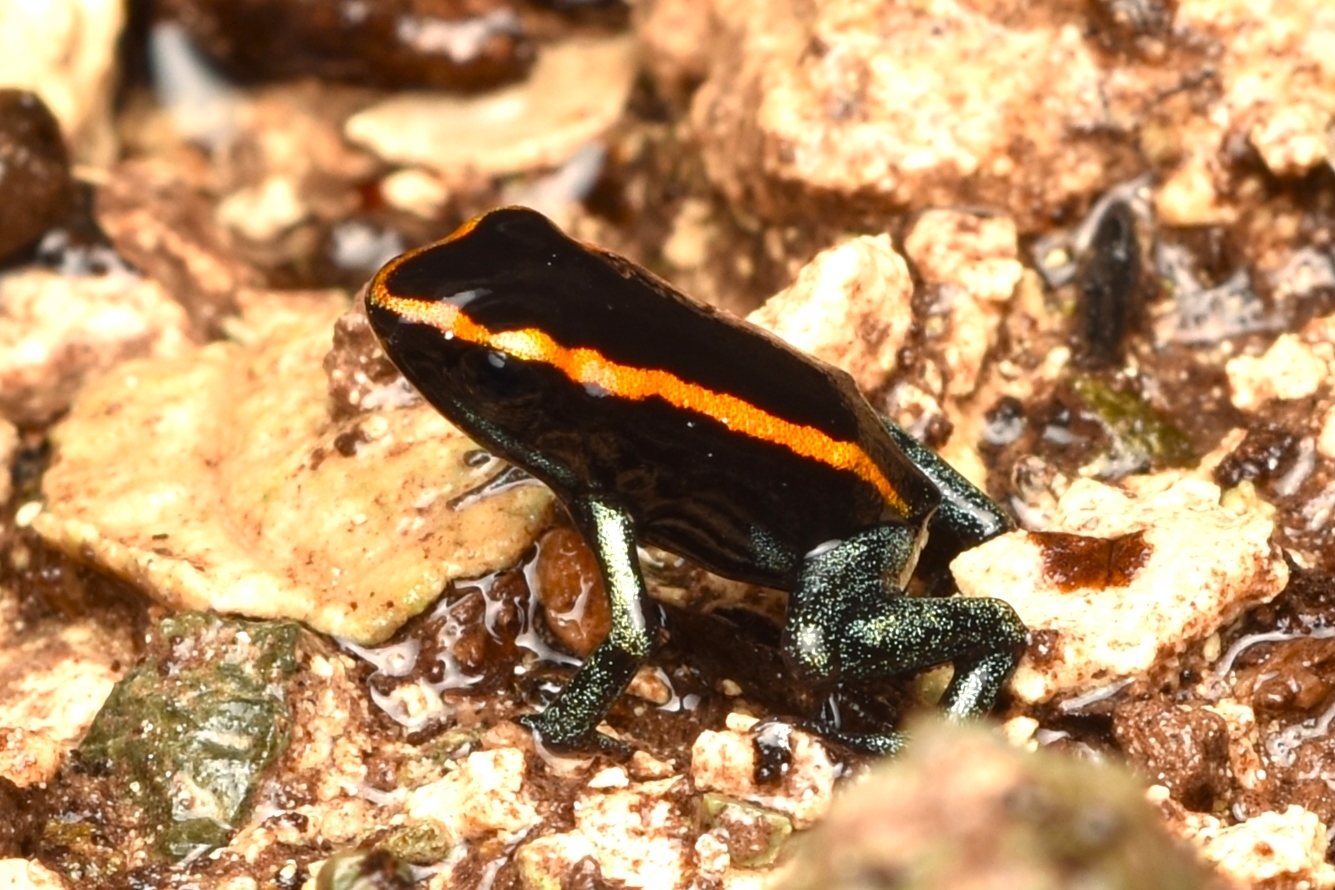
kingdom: Animalia
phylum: Chordata
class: Amphibia
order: Anura
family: Dendrobatidae
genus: Phyllobates
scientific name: Phyllobates vittatus
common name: Golfodulcean poison frog
